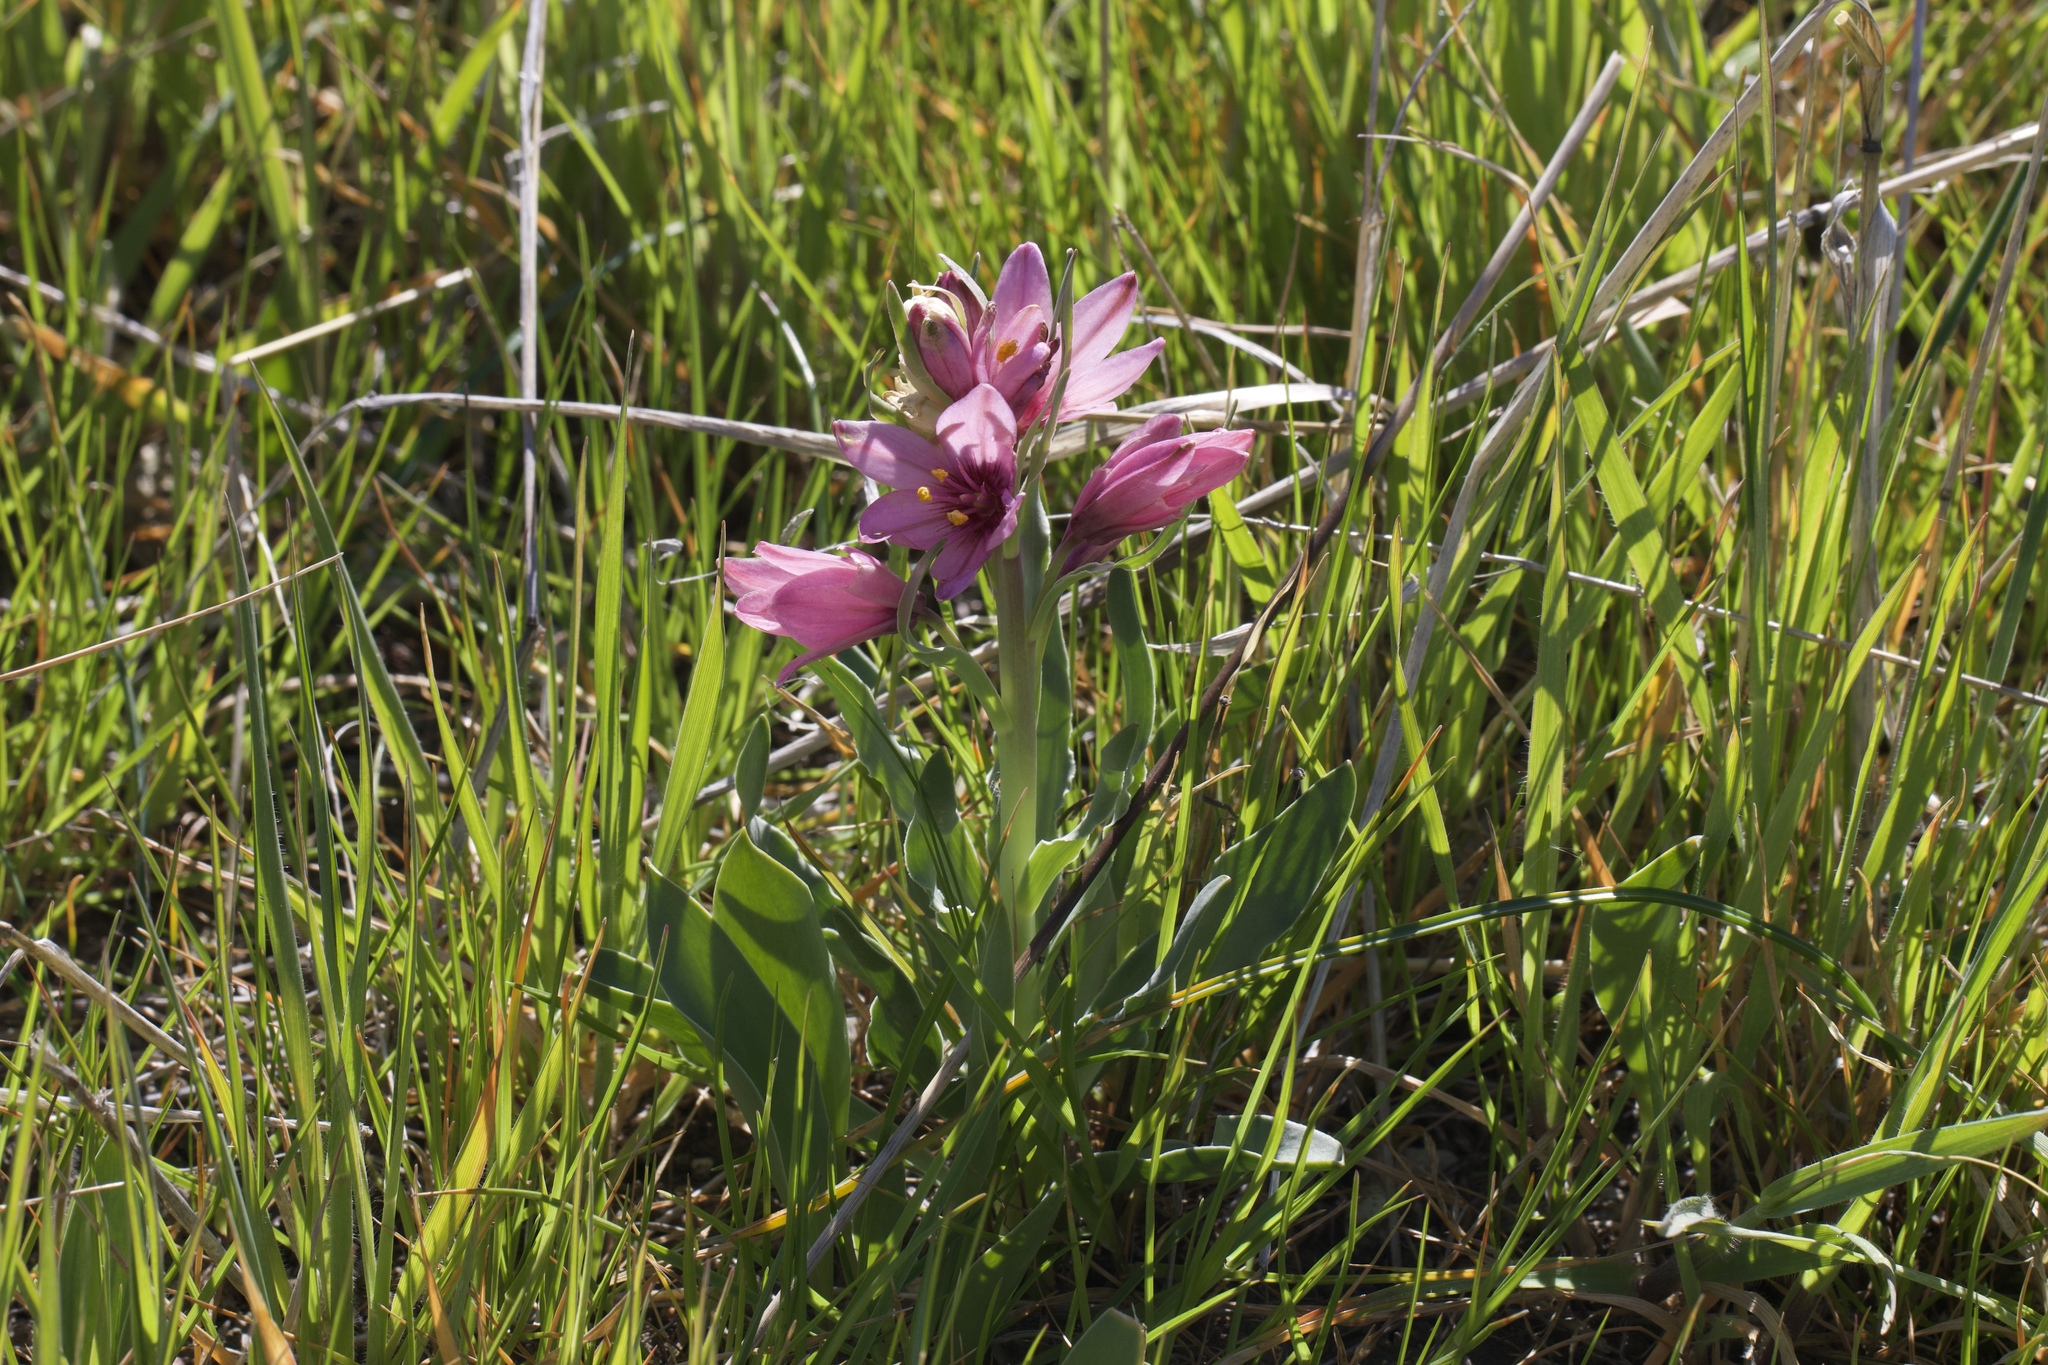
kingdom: Plantae
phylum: Tracheophyta
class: Liliopsida
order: Liliales
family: Liliaceae
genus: Fritillaria
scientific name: Fritillaria pluriflora
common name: Adobe-lily
